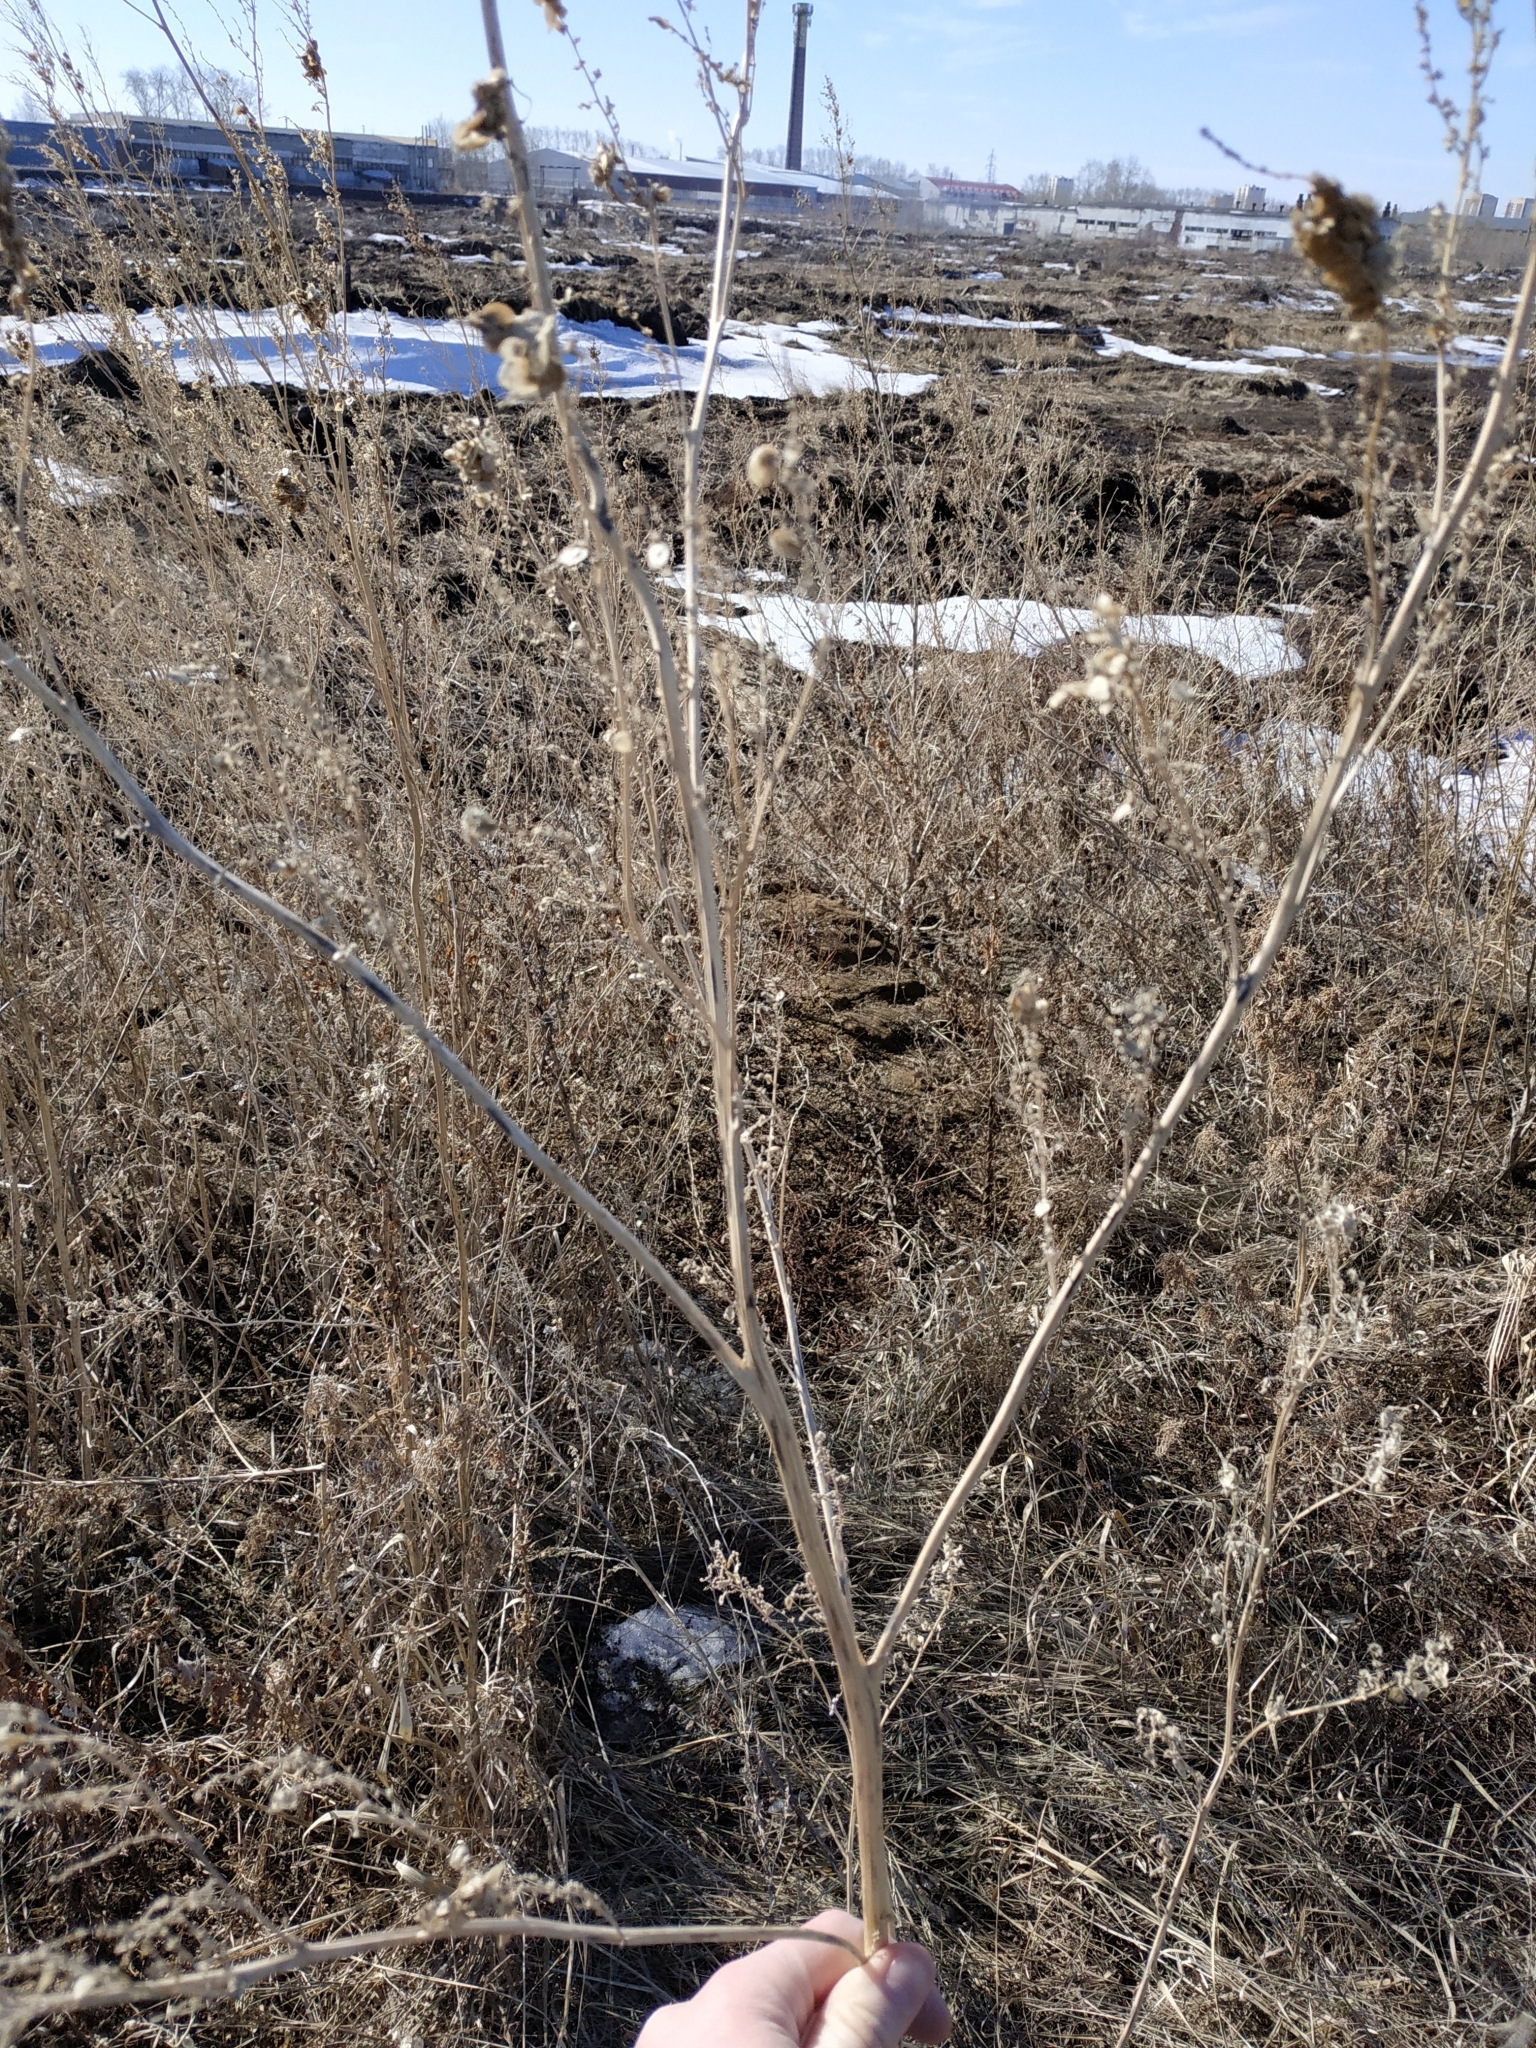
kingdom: Plantae
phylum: Tracheophyta
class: Magnoliopsida
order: Caryophyllales
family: Amaranthaceae
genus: Atriplex
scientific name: Atriplex sagittata
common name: Purple orache
